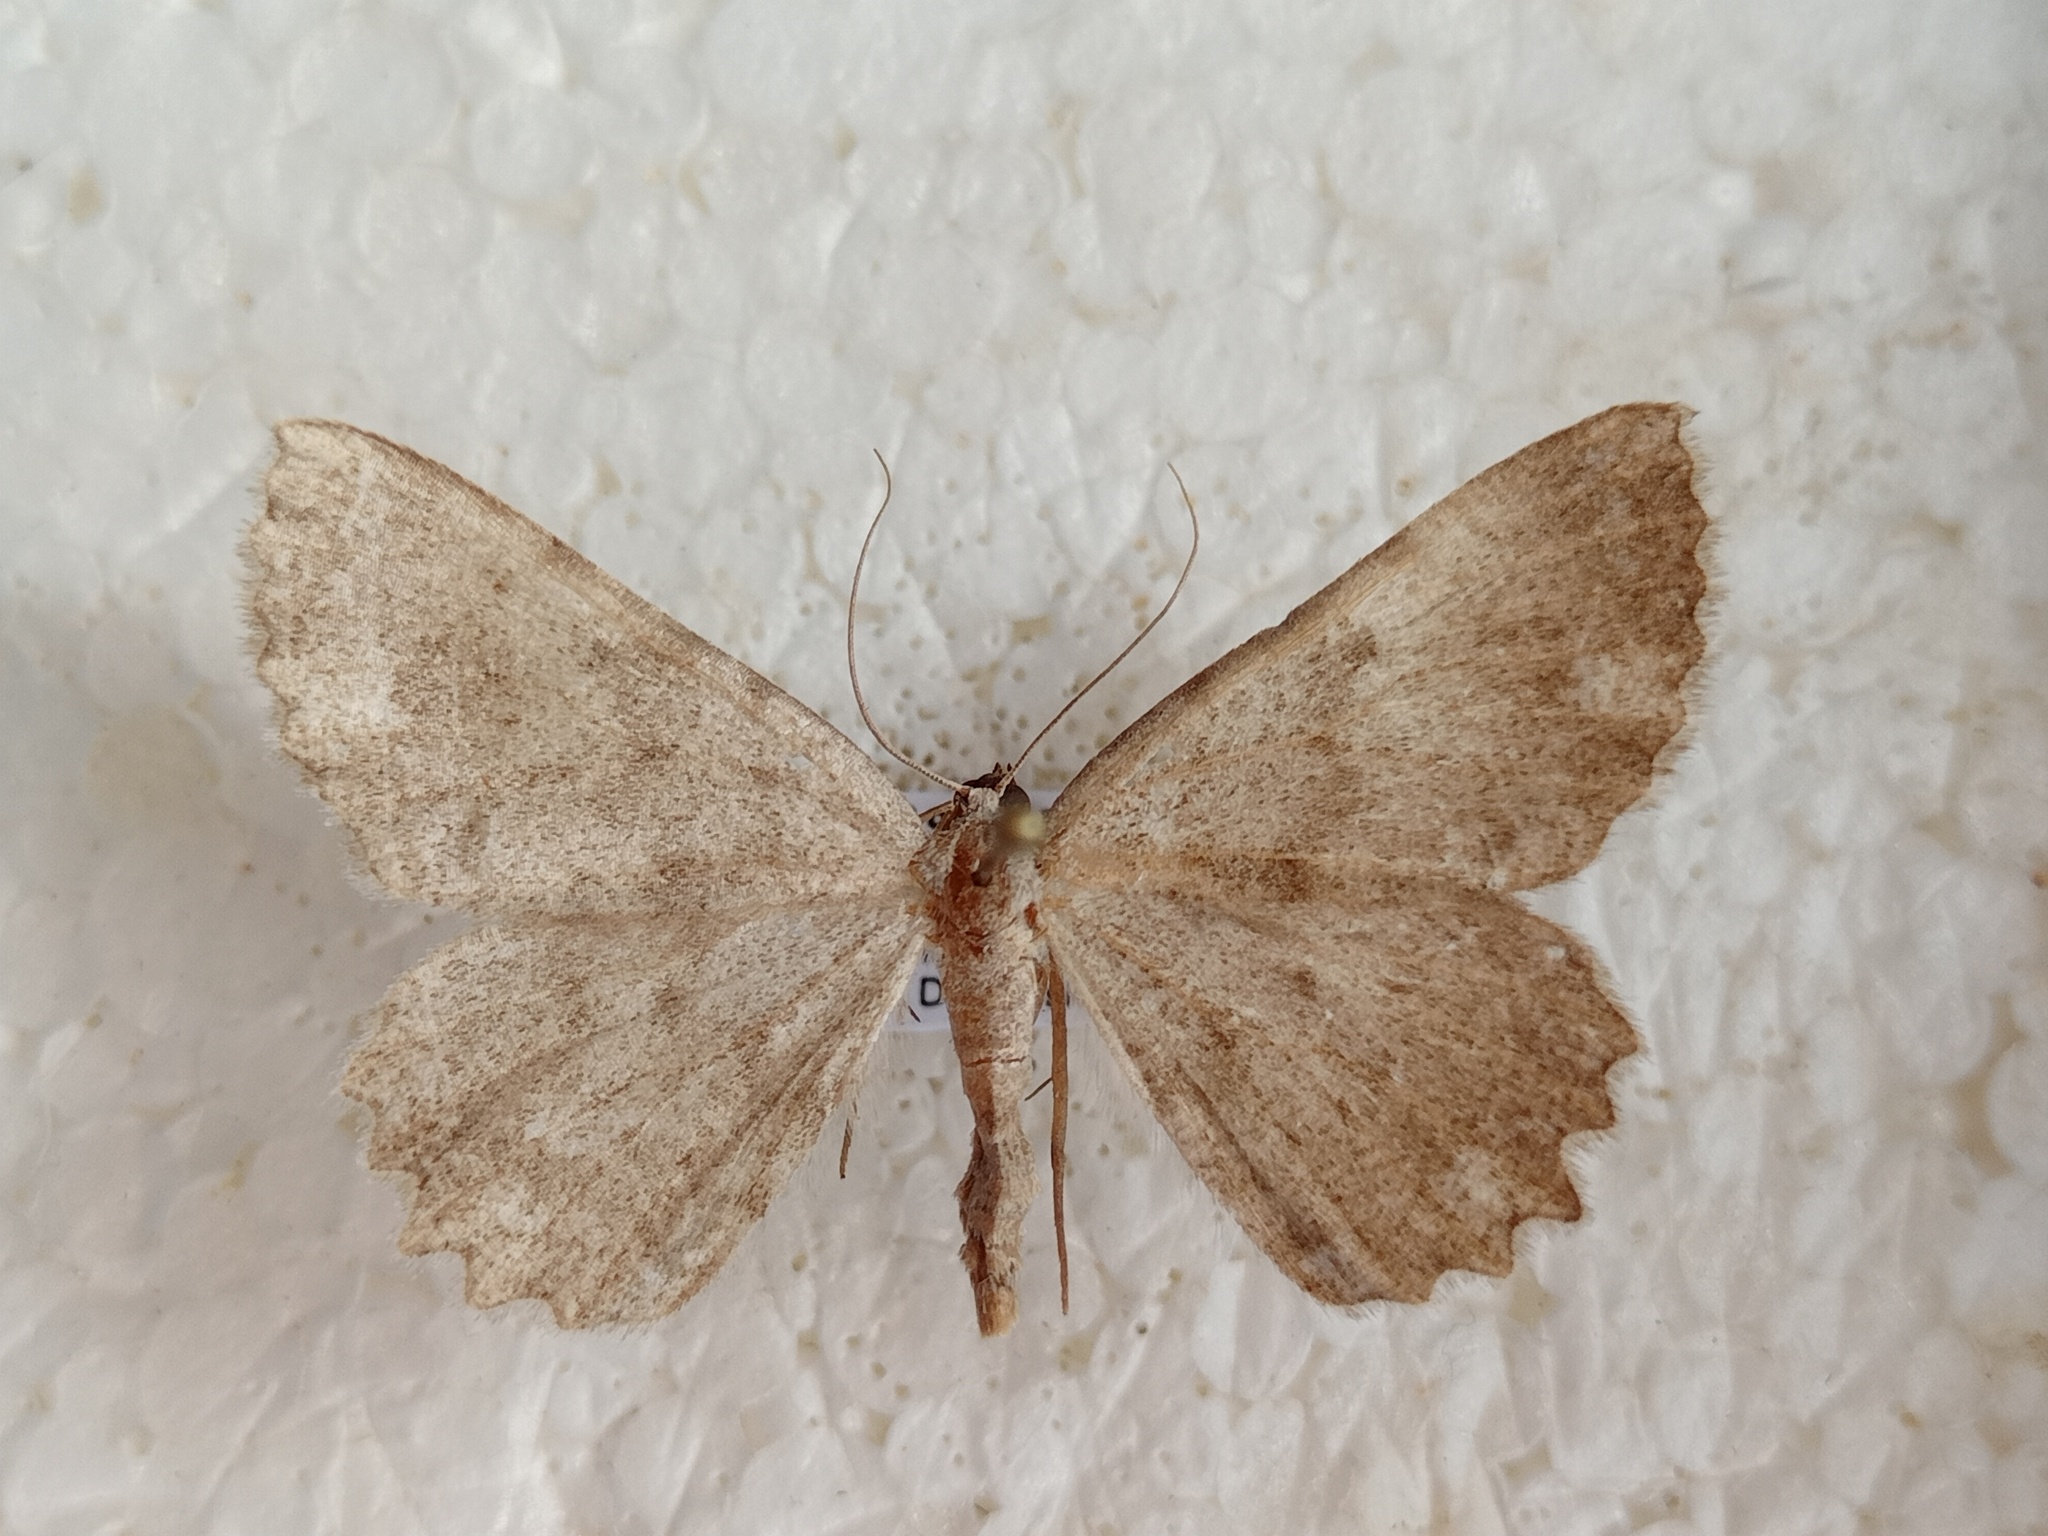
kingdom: Animalia
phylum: Arthropoda
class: Insecta
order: Lepidoptera
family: Geometridae
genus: Gnophos
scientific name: Gnophos sartata
